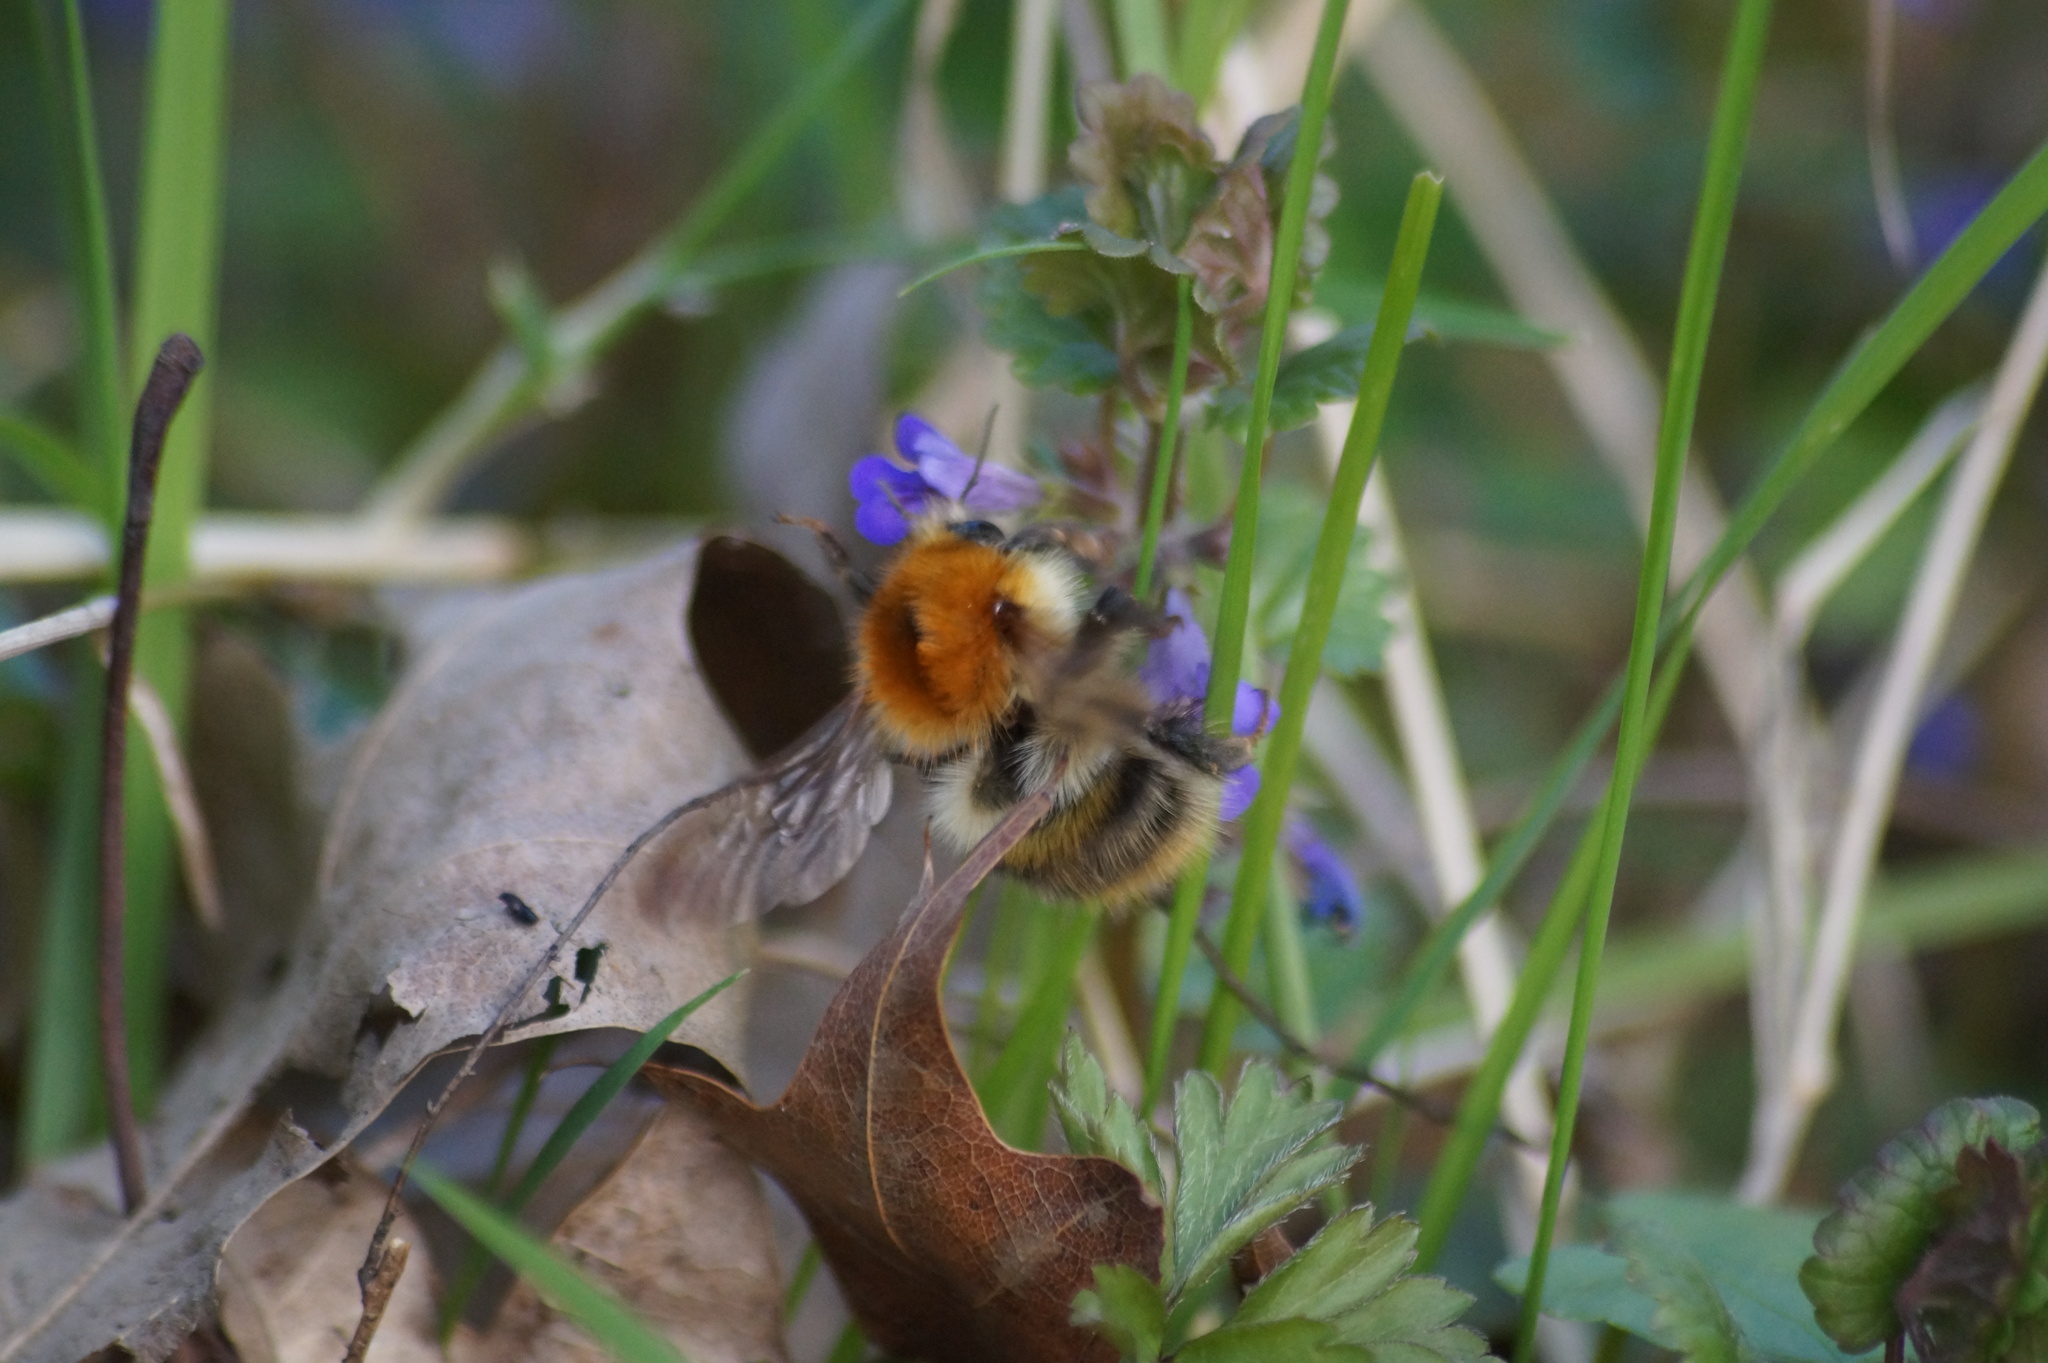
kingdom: Animalia
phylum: Arthropoda
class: Insecta
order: Hymenoptera
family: Apidae
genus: Bombus
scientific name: Bombus pascuorum
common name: Common carder bee
